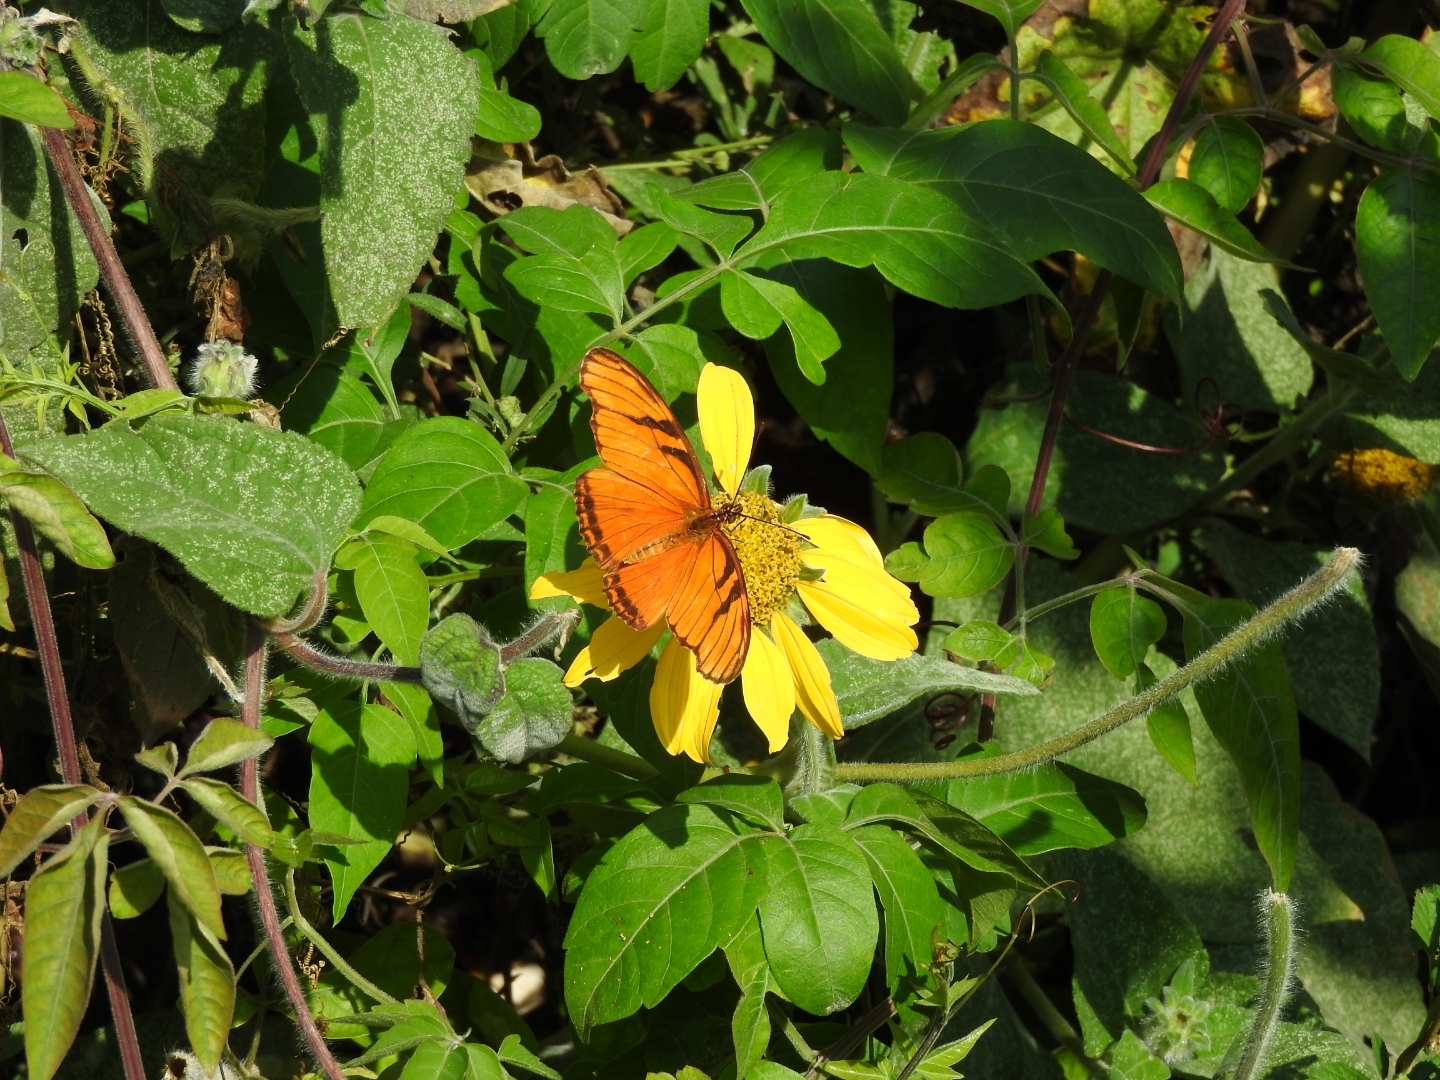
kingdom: Animalia
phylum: Arthropoda
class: Insecta
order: Lepidoptera
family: Nymphalidae
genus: Dione
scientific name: Dione juno
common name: Juno silverspot
